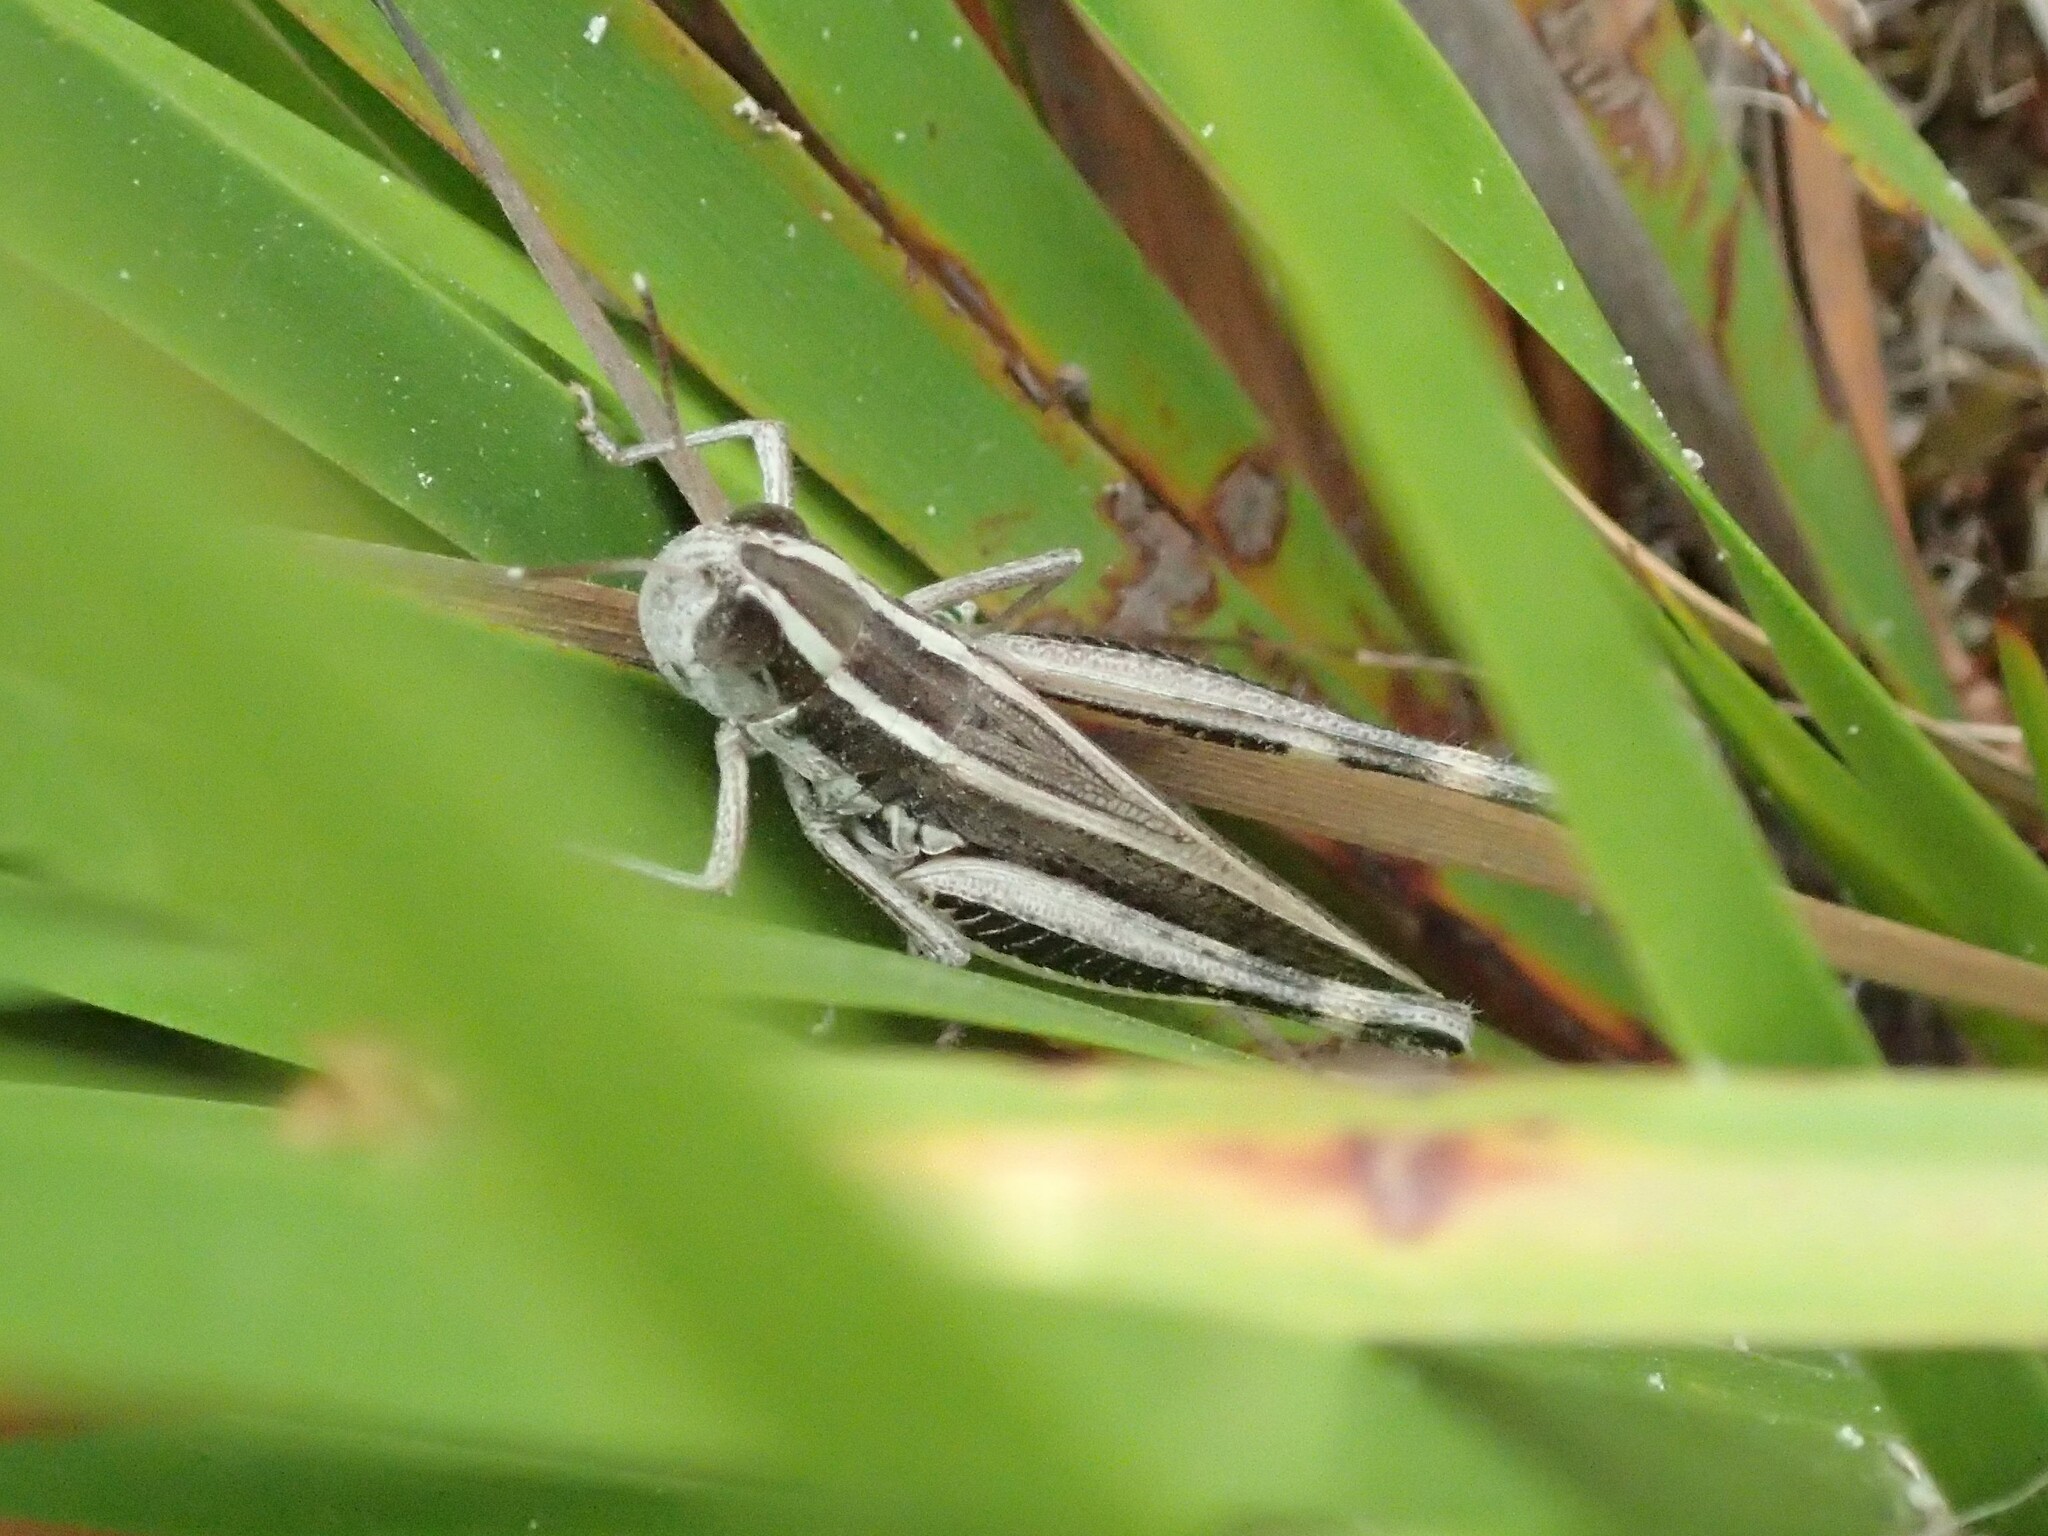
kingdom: Animalia
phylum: Arthropoda
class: Insecta
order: Orthoptera
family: Acrididae
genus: Macrotona
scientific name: Macrotona australis
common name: Common macrotona
